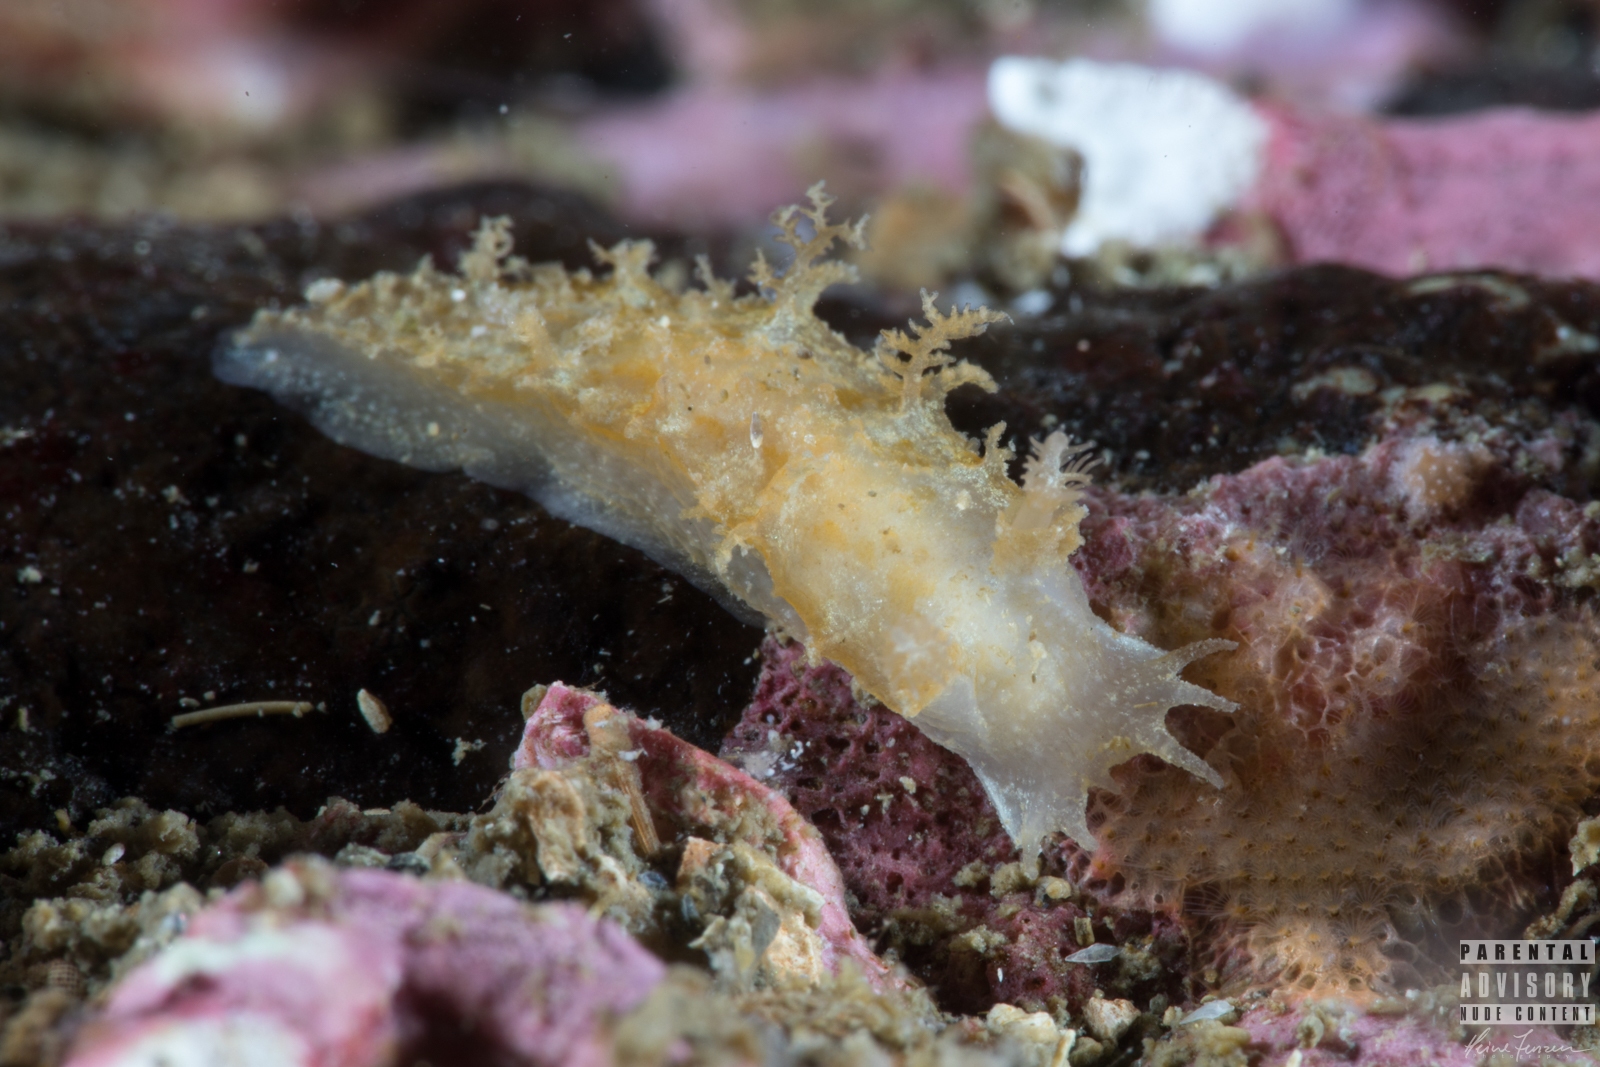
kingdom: Animalia
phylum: Mollusca
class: Gastropoda
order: Nudibranchia
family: Tritoniidae
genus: Duvaucelia
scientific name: Duvaucelia plebeia
